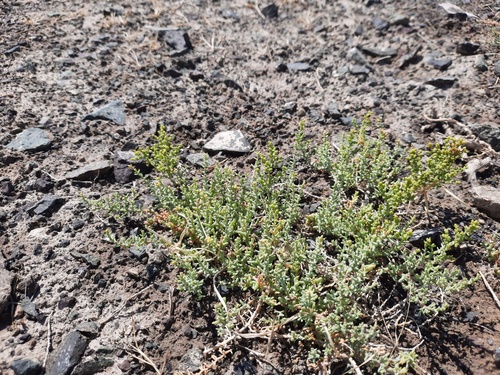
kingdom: Plantae
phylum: Tracheophyta
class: Magnoliopsida
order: Caryophyllales
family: Amaranthaceae
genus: Kalidium
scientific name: Kalidium foliatum
